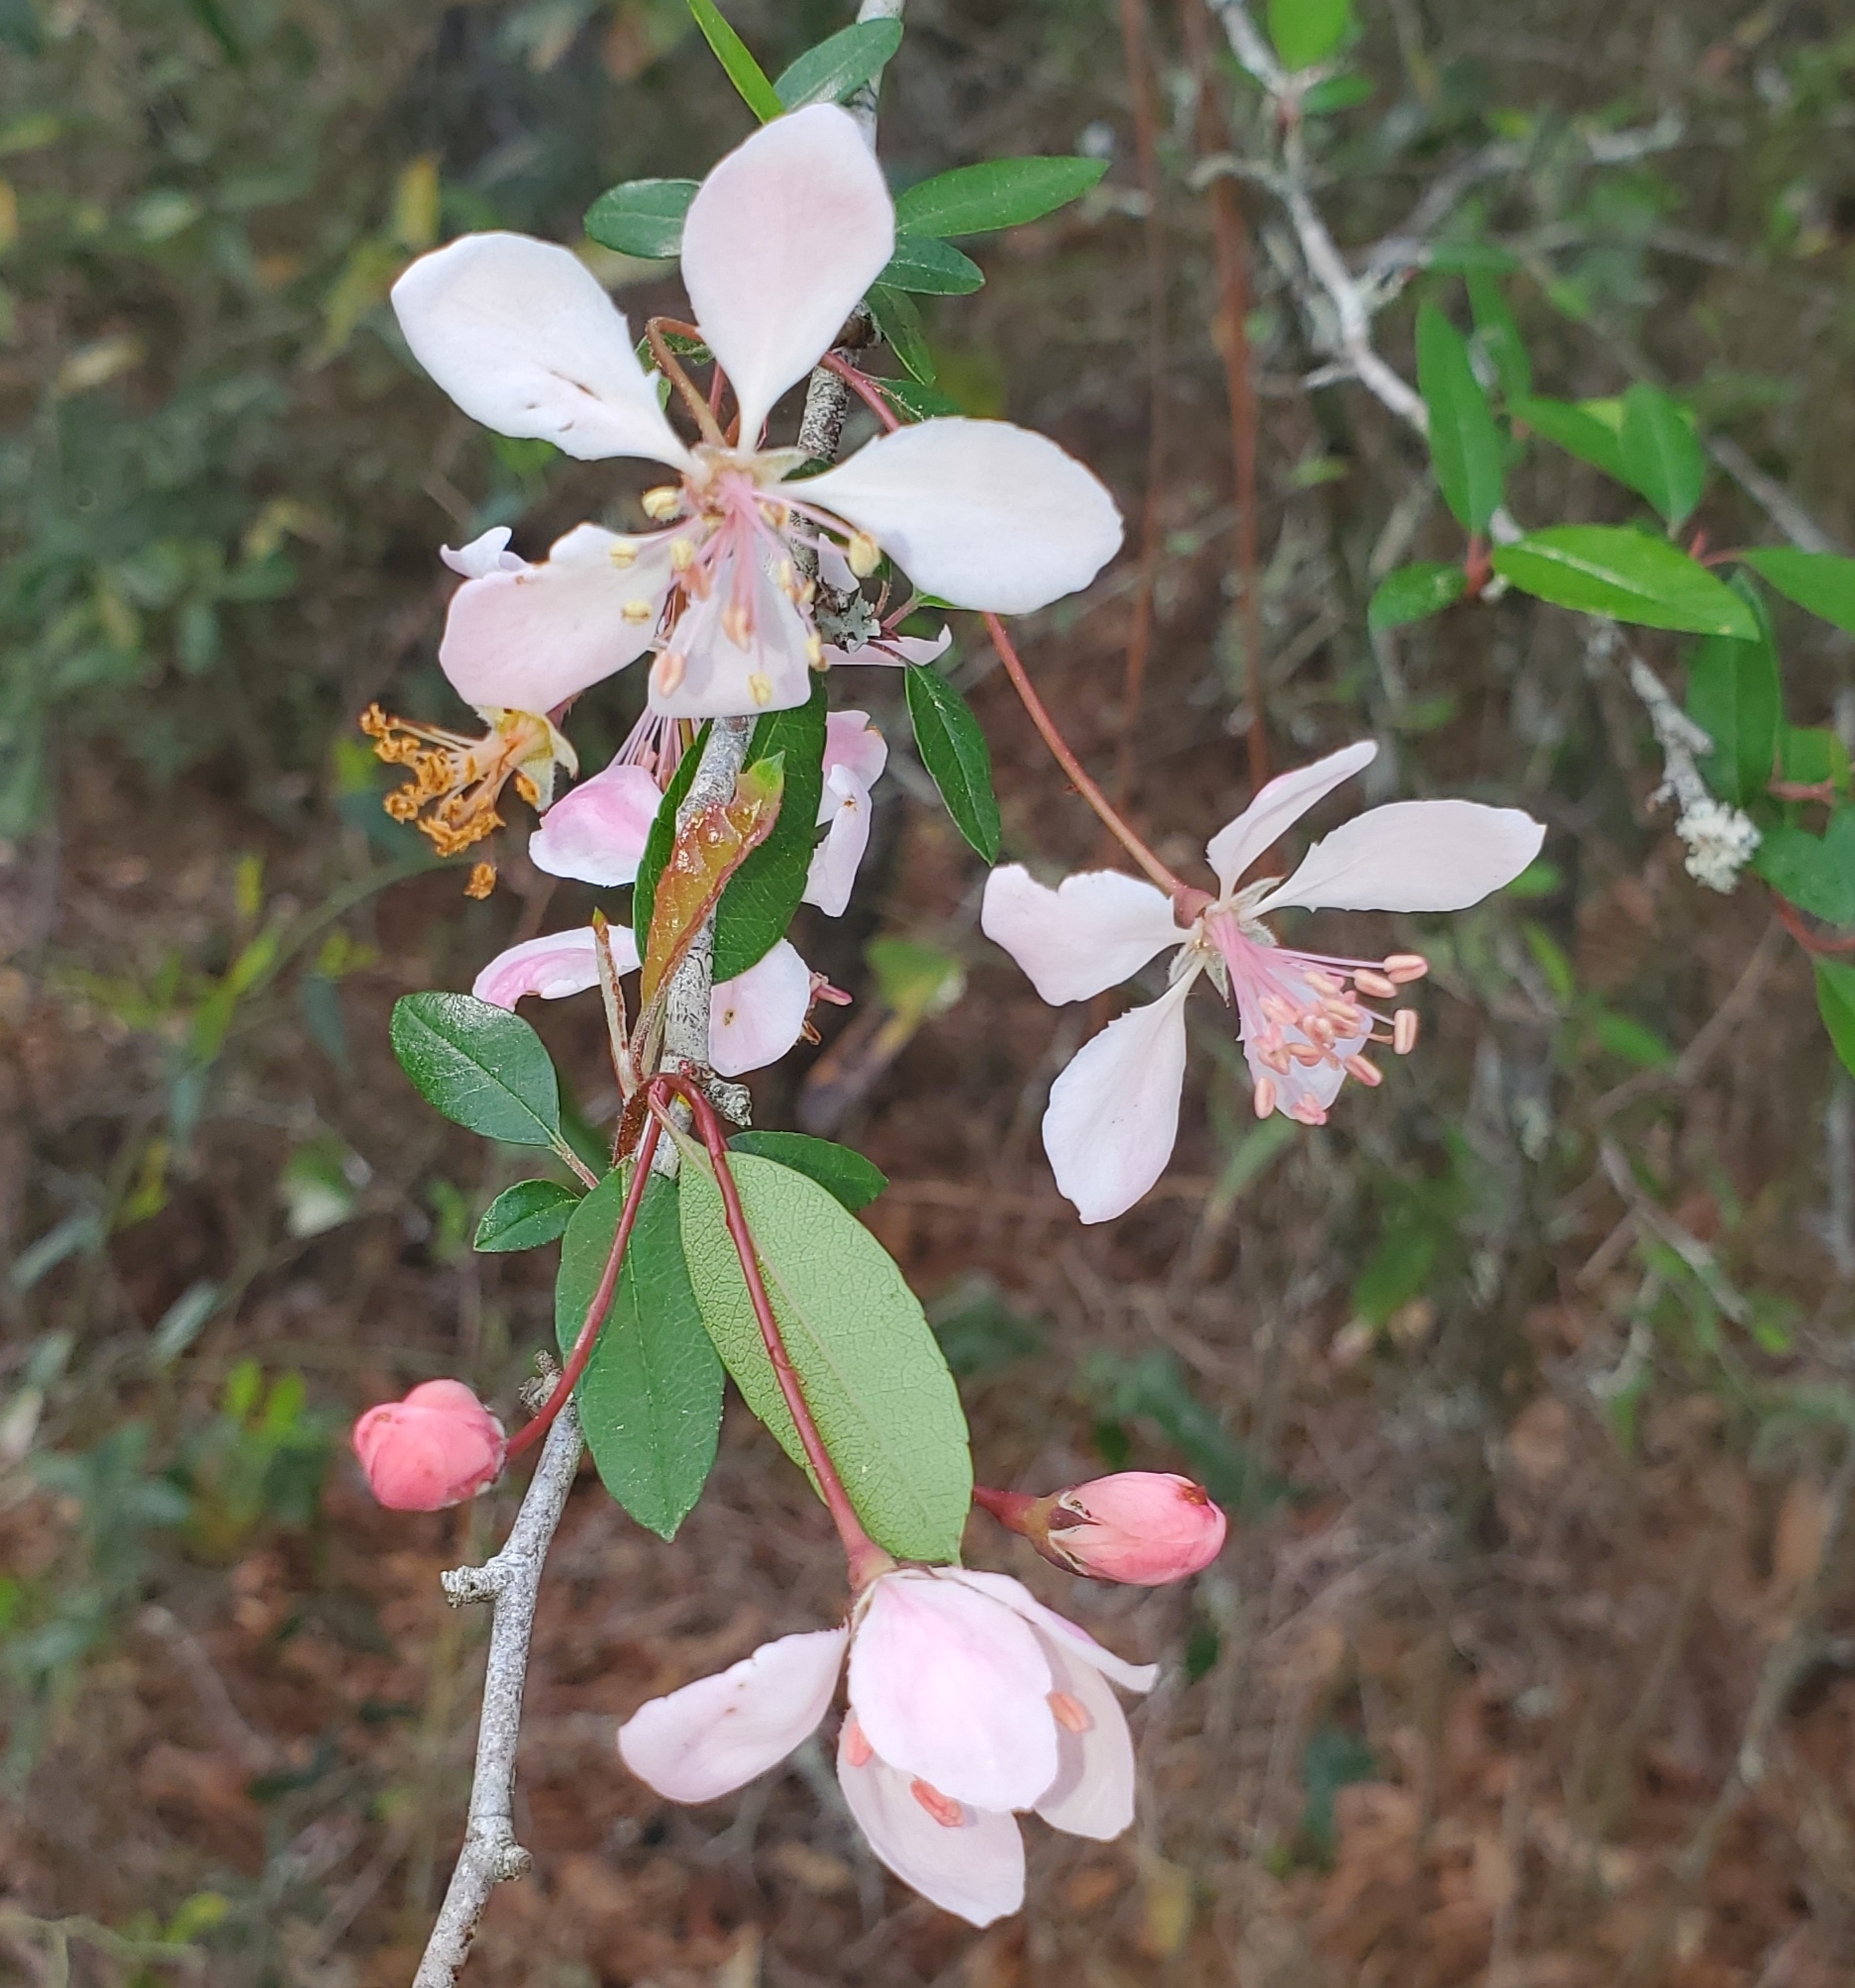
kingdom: Plantae
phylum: Tracheophyta
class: Magnoliopsida
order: Rosales
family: Rosaceae
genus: Malus
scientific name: Malus angustifolia
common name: Southern crab apple
